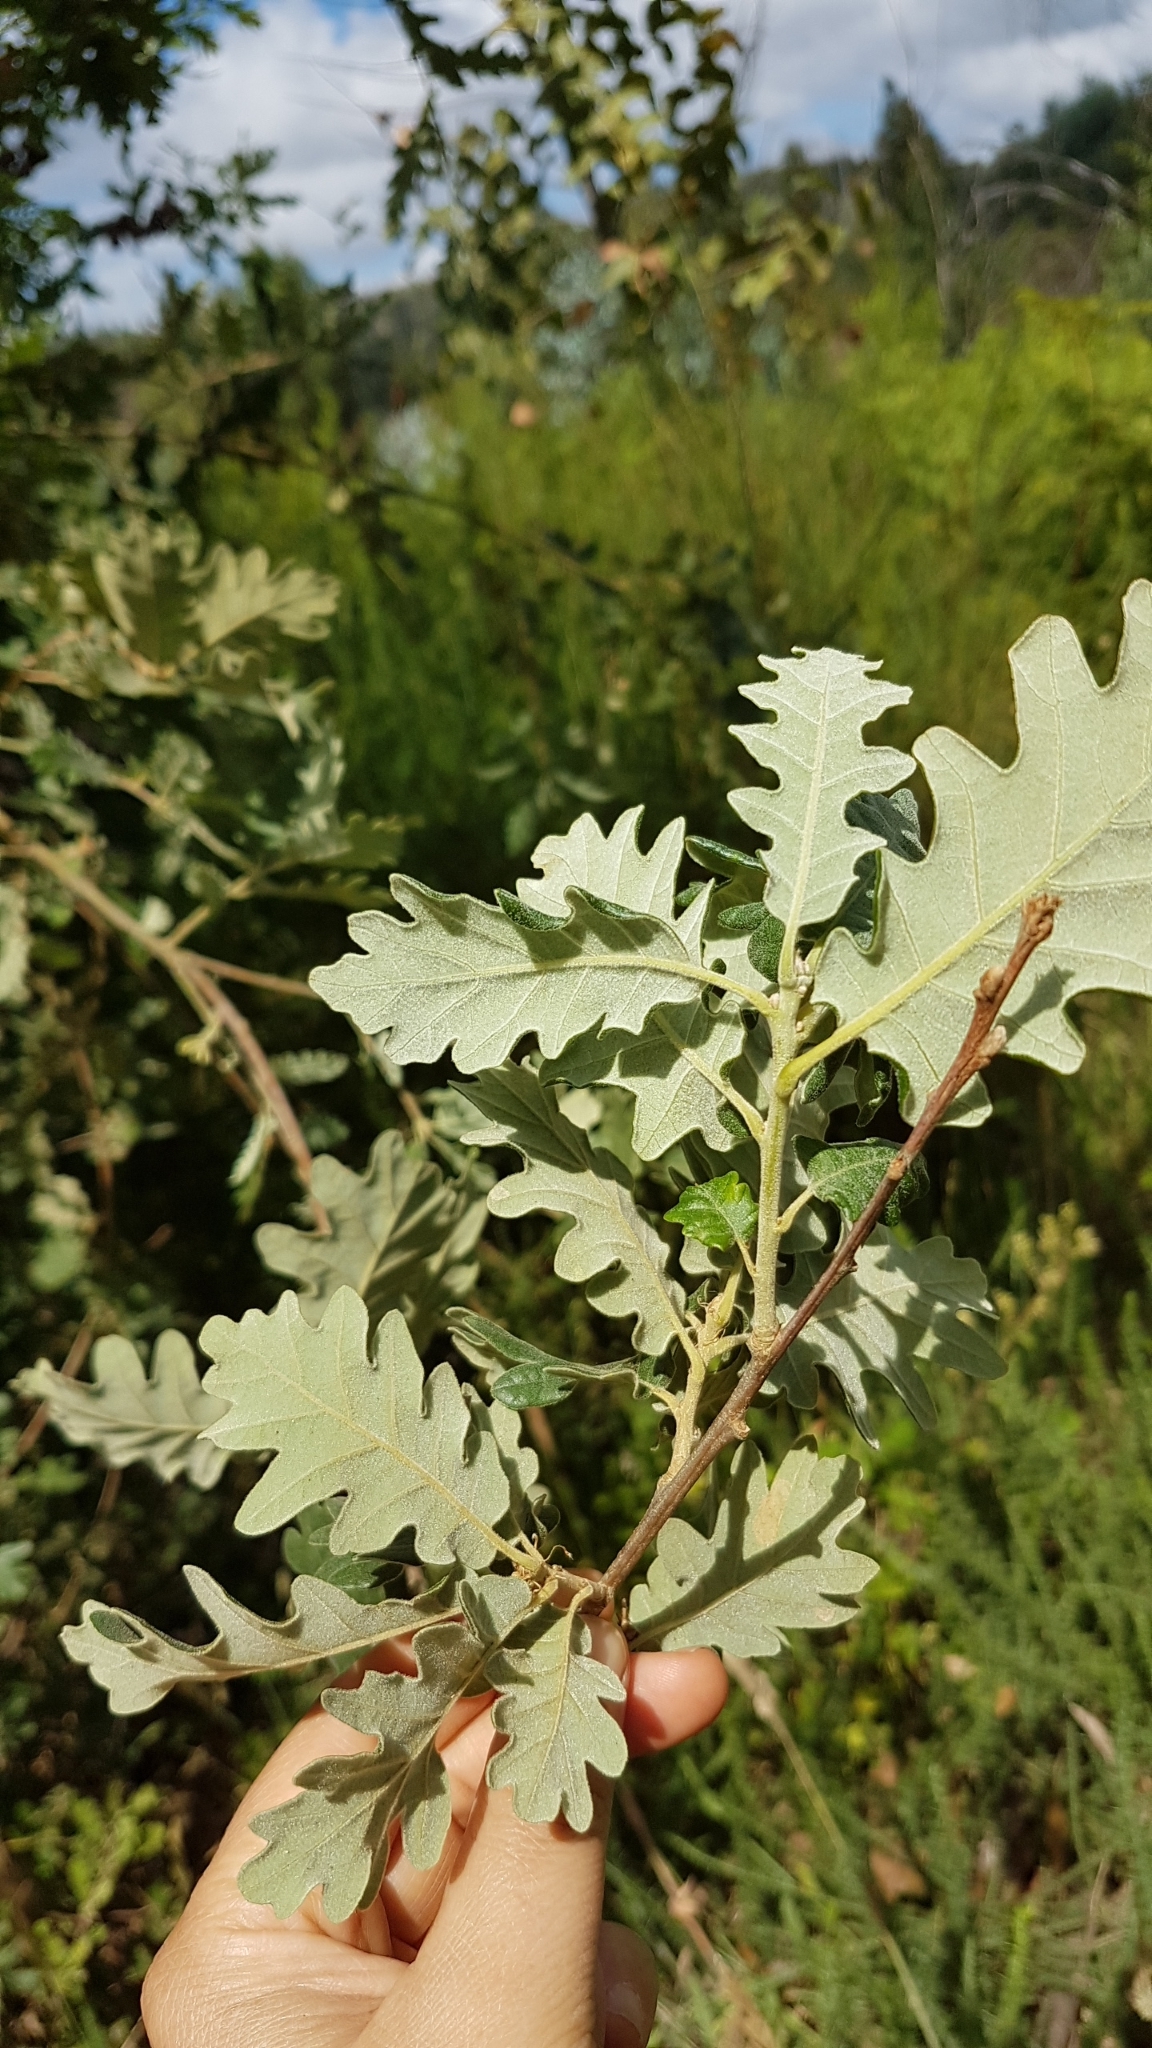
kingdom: Plantae
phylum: Tracheophyta
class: Magnoliopsida
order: Fagales
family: Fagaceae
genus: Quercus
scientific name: Quercus pyrenaica
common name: Pyrenean oak
